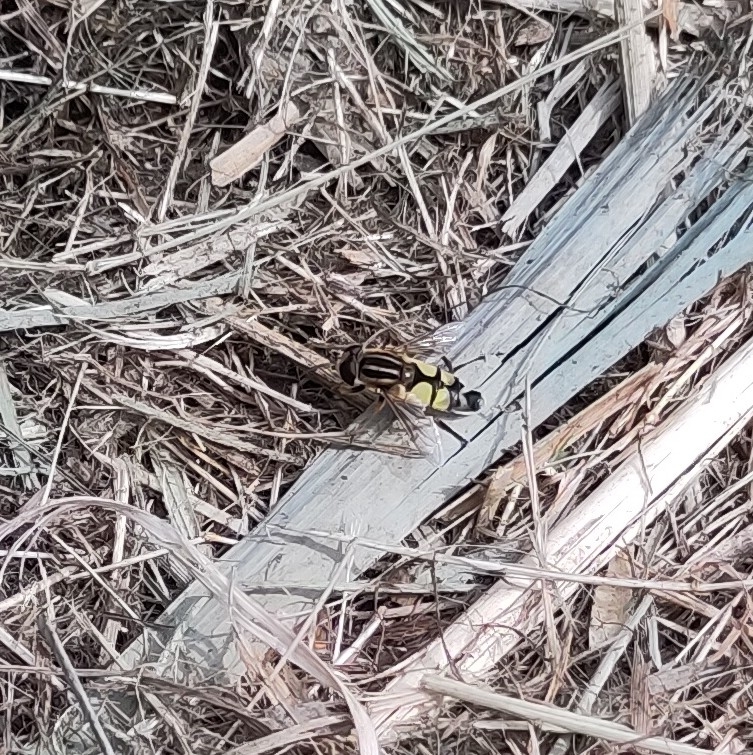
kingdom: Animalia
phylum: Arthropoda
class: Insecta
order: Diptera
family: Syrphidae
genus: Helophilus
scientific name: Helophilus trivittatus
